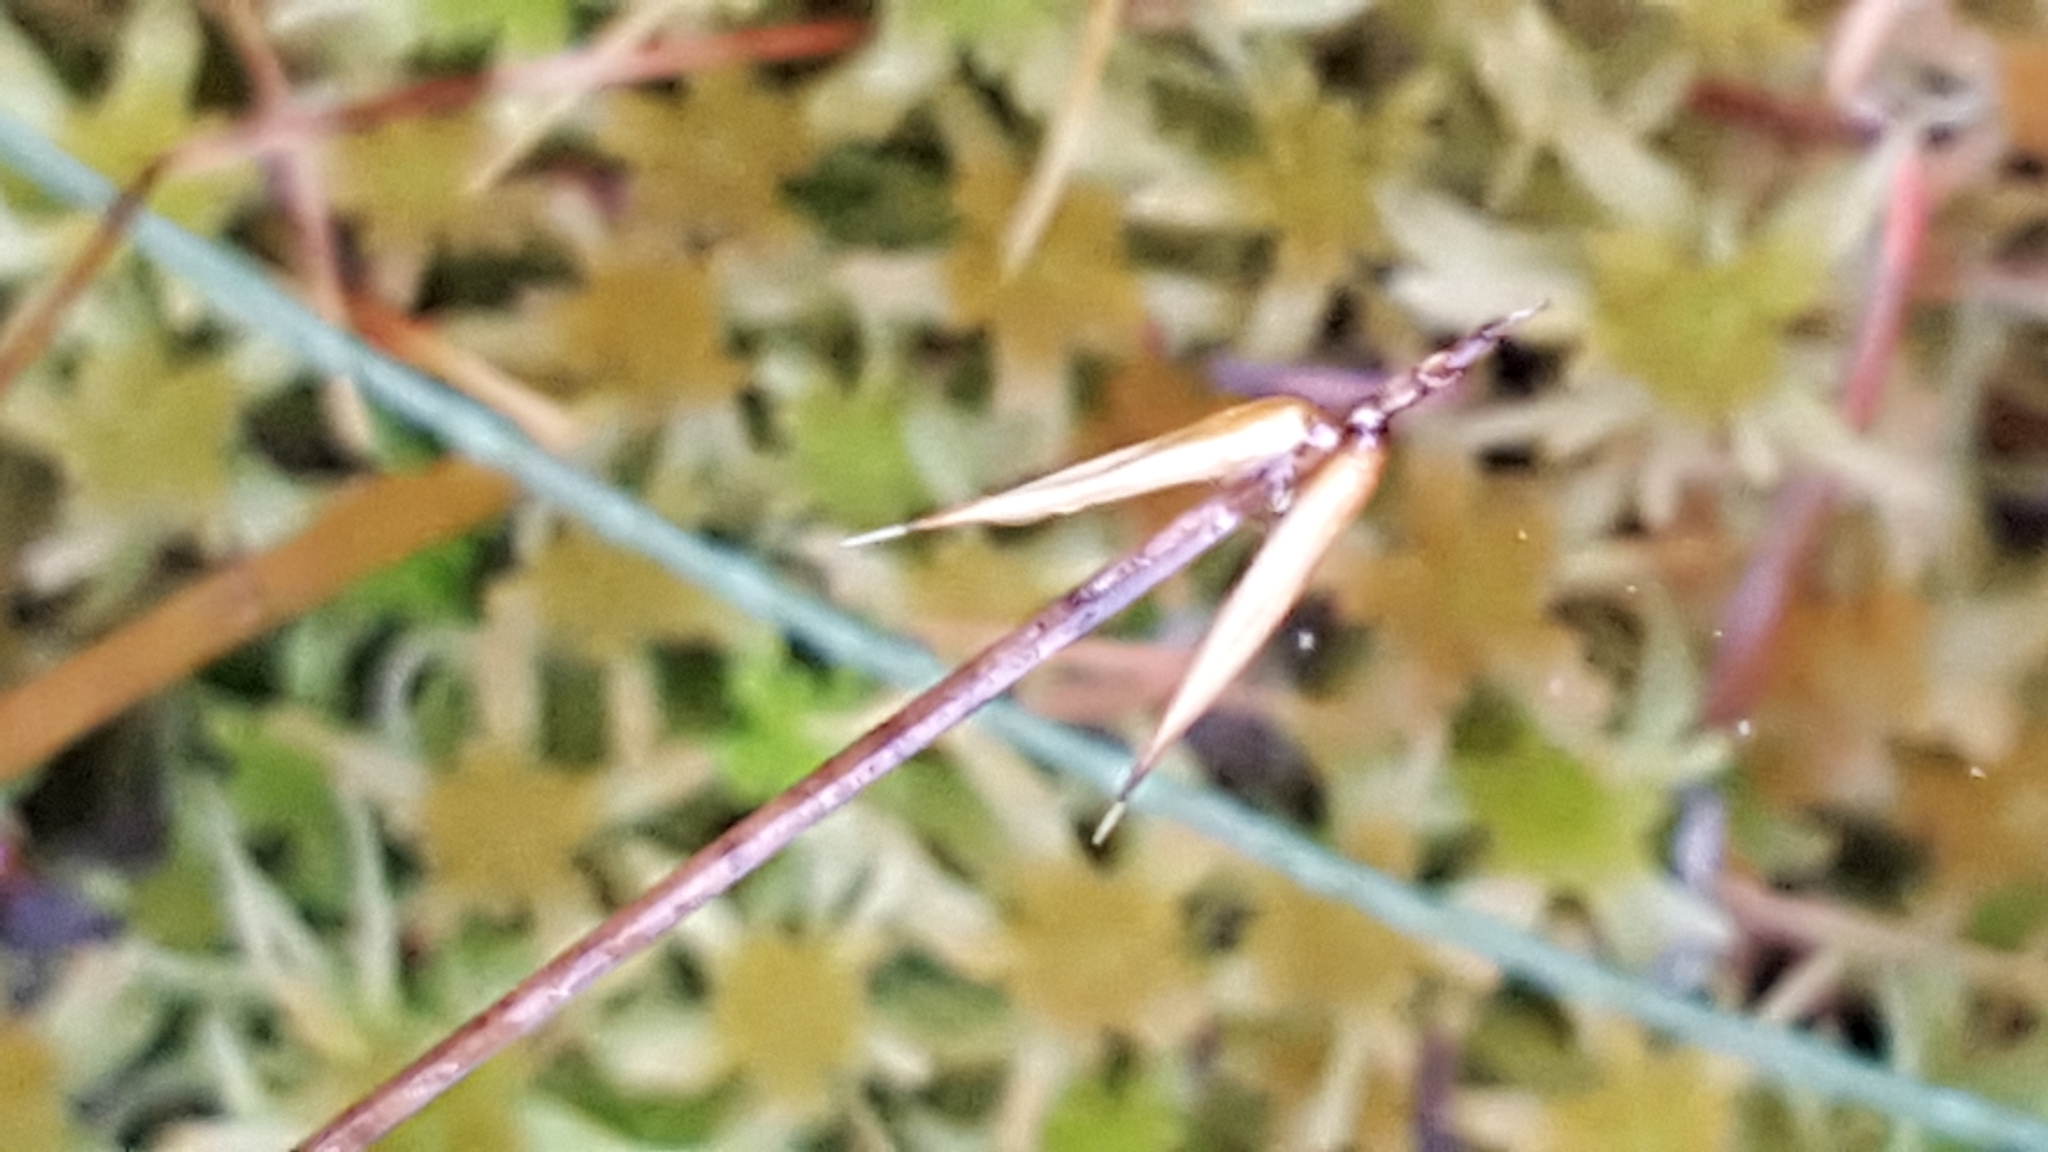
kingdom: Plantae
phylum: Tracheophyta
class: Liliopsida
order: Poales
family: Cyperaceae
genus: Carex
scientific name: Carex pauciflora
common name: Few-flowered sedge
